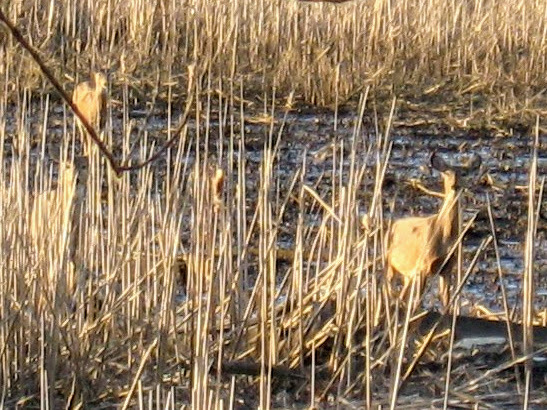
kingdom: Animalia
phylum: Chordata
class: Mammalia
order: Artiodactyla
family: Cervidae
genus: Odocoileus
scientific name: Odocoileus virginianus
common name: White-tailed deer
